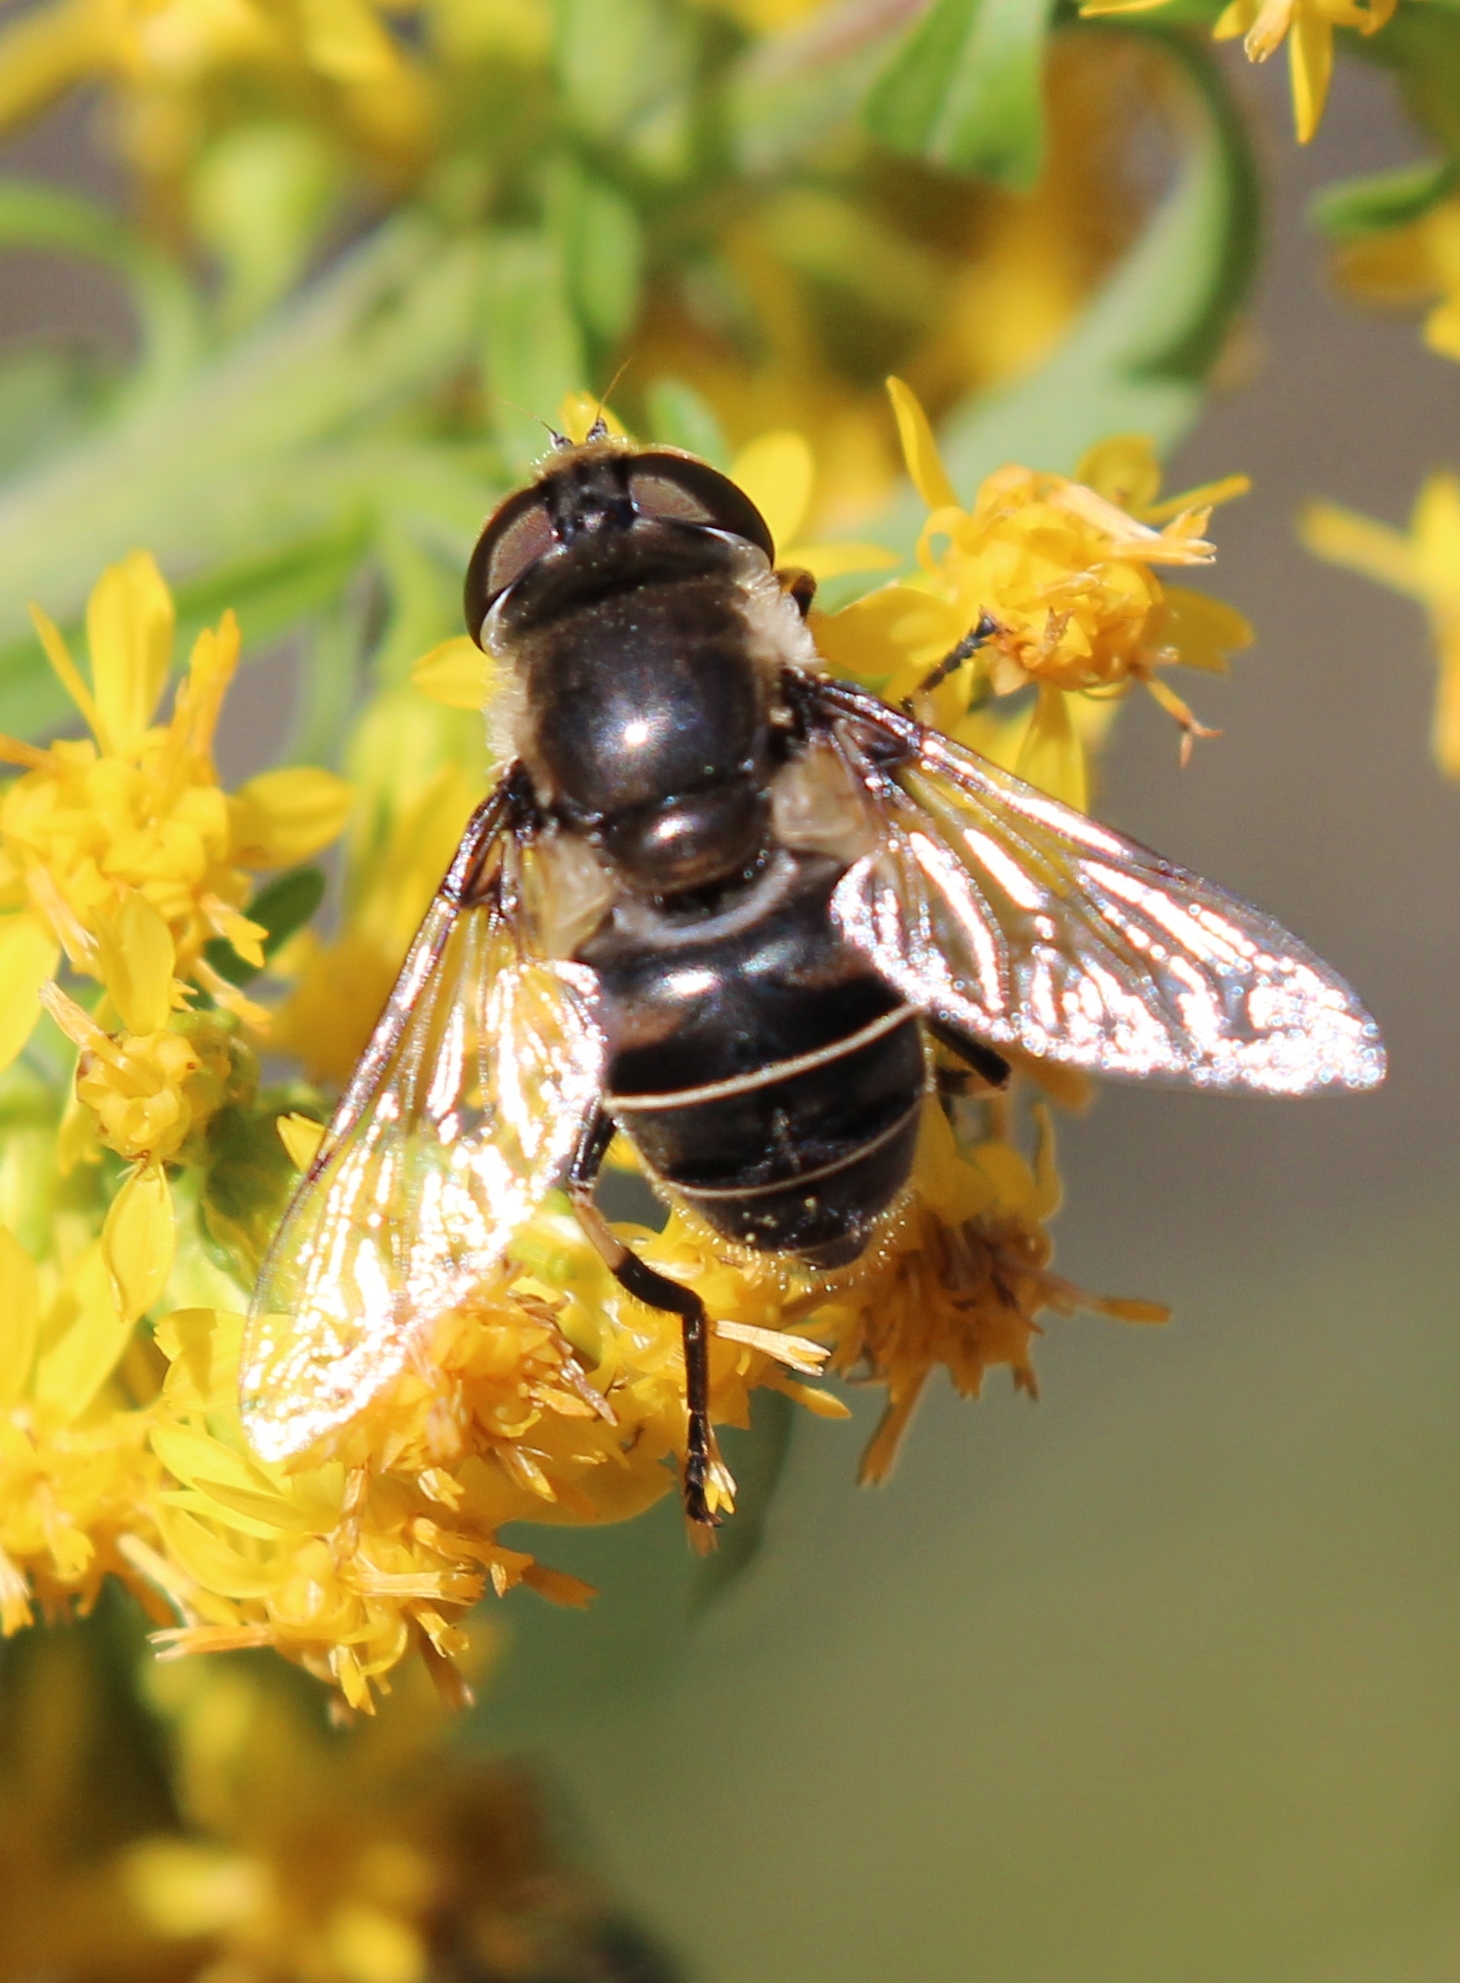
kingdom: Animalia
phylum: Arthropoda
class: Insecta
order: Diptera
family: Syrphidae
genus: Eristalis
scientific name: Eristalis dimidiata
